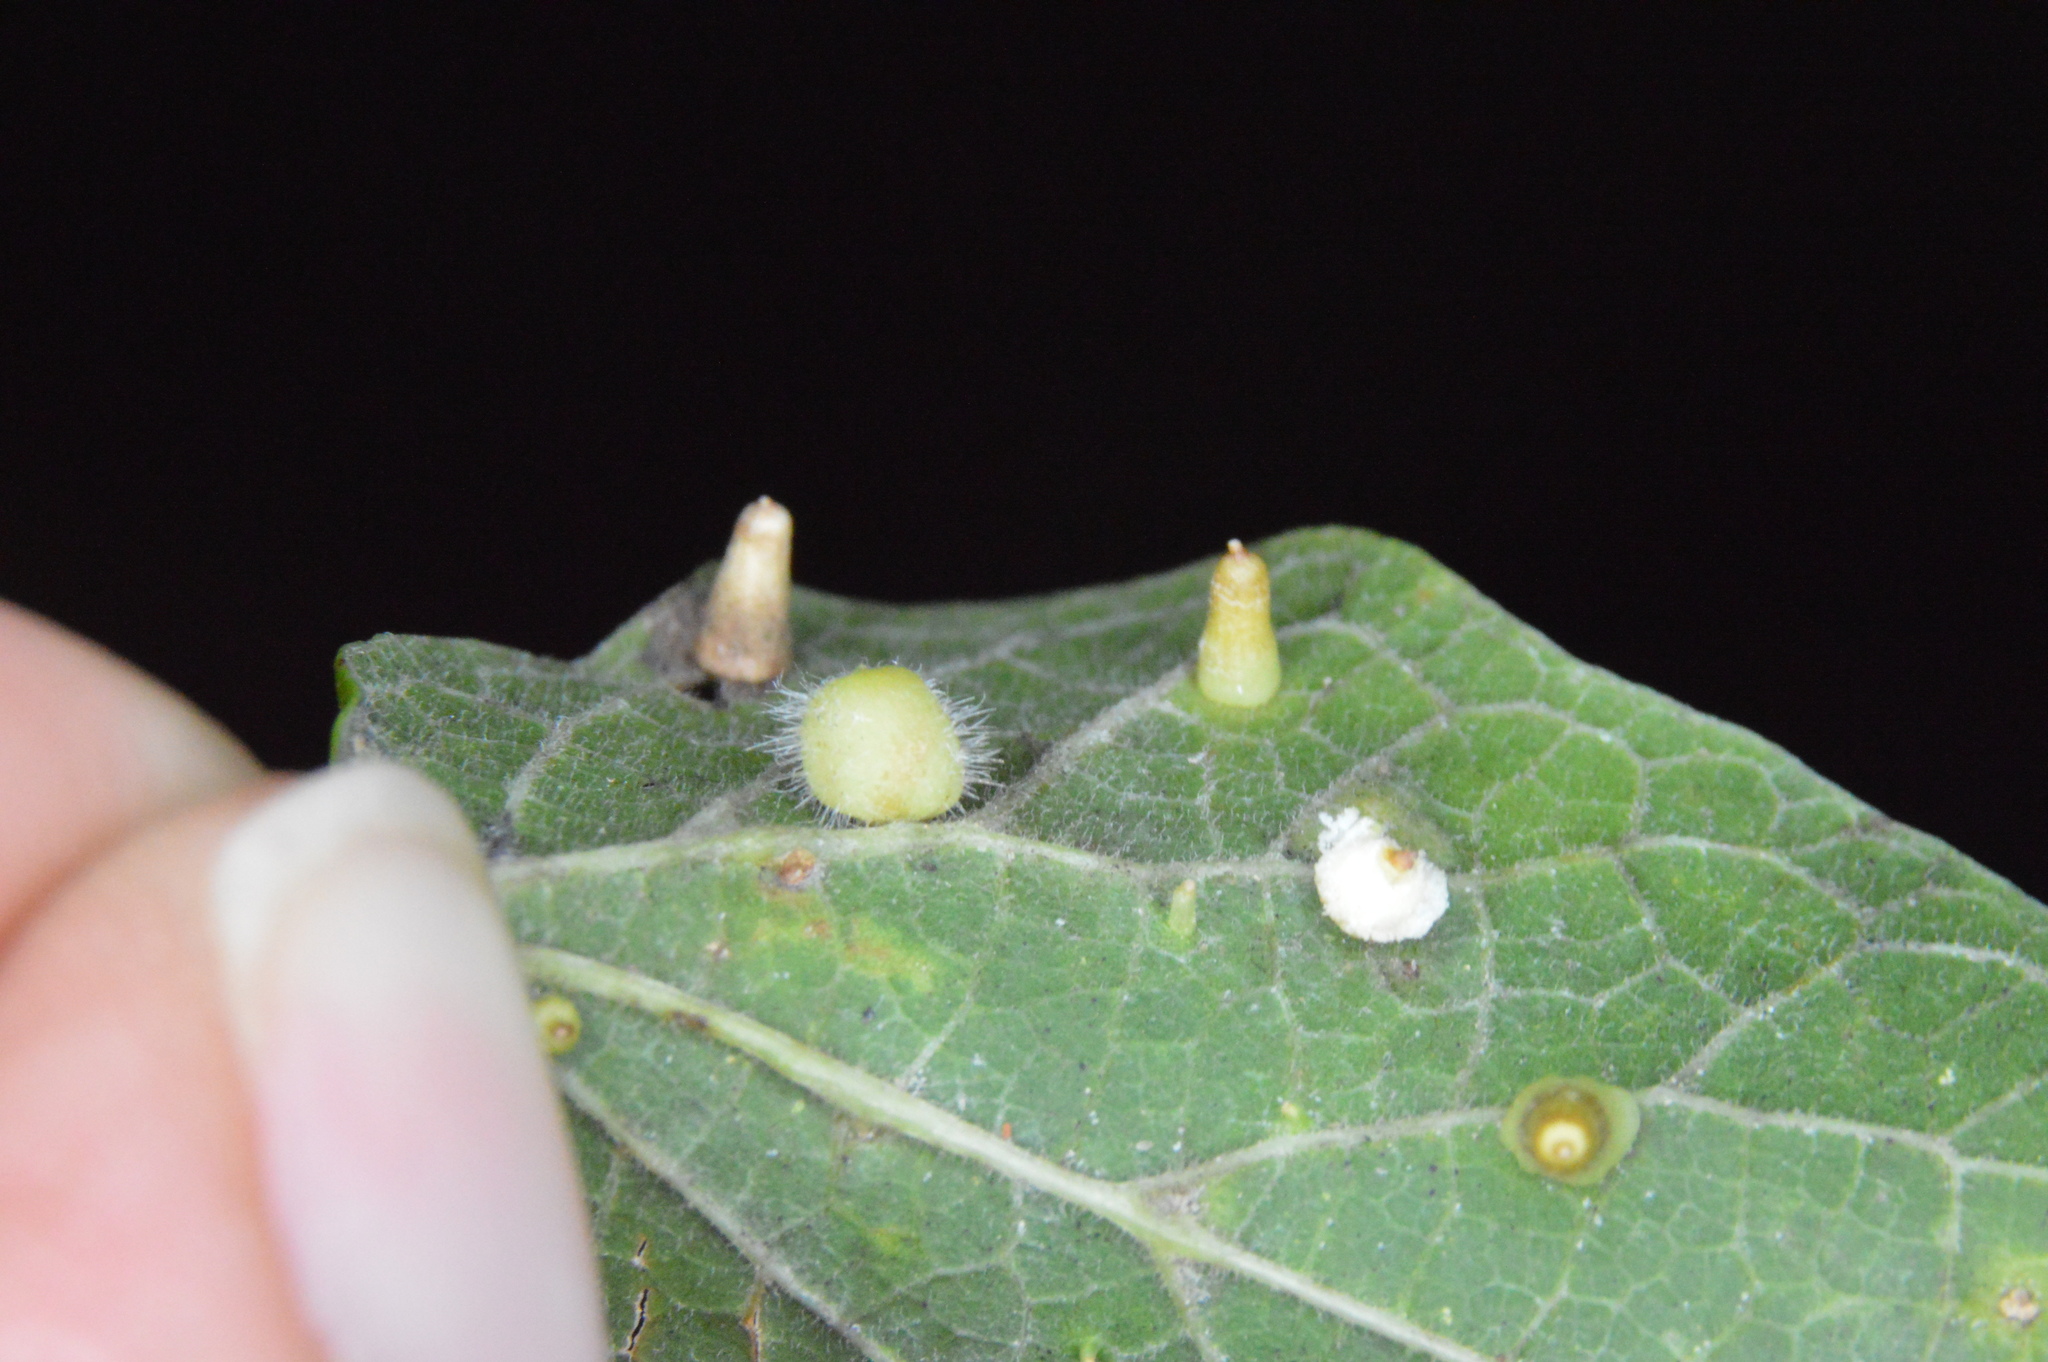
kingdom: Animalia
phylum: Arthropoda
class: Insecta
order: Diptera
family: Cecidomyiidae
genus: Celticecis
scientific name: Celticecis pubescens
